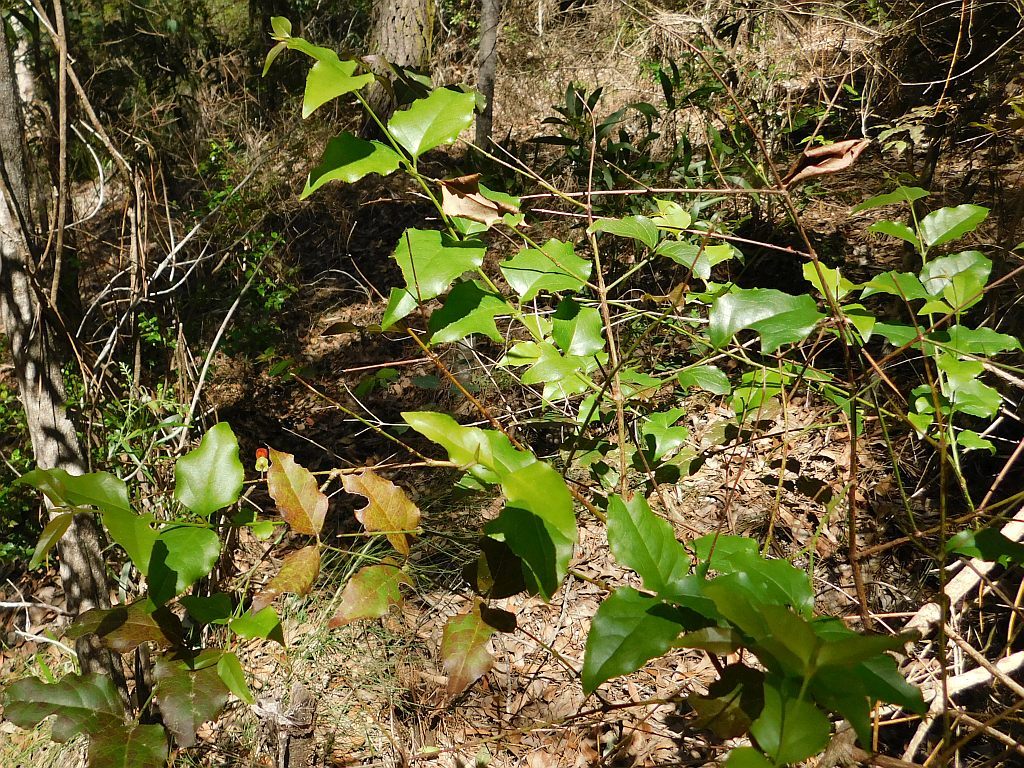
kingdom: Plantae
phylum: Tracheophyta
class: Magnoliopsida
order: Lamiales
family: Stilbaceae
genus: Halleria
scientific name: Halleria lucida
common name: Tree fuschia
